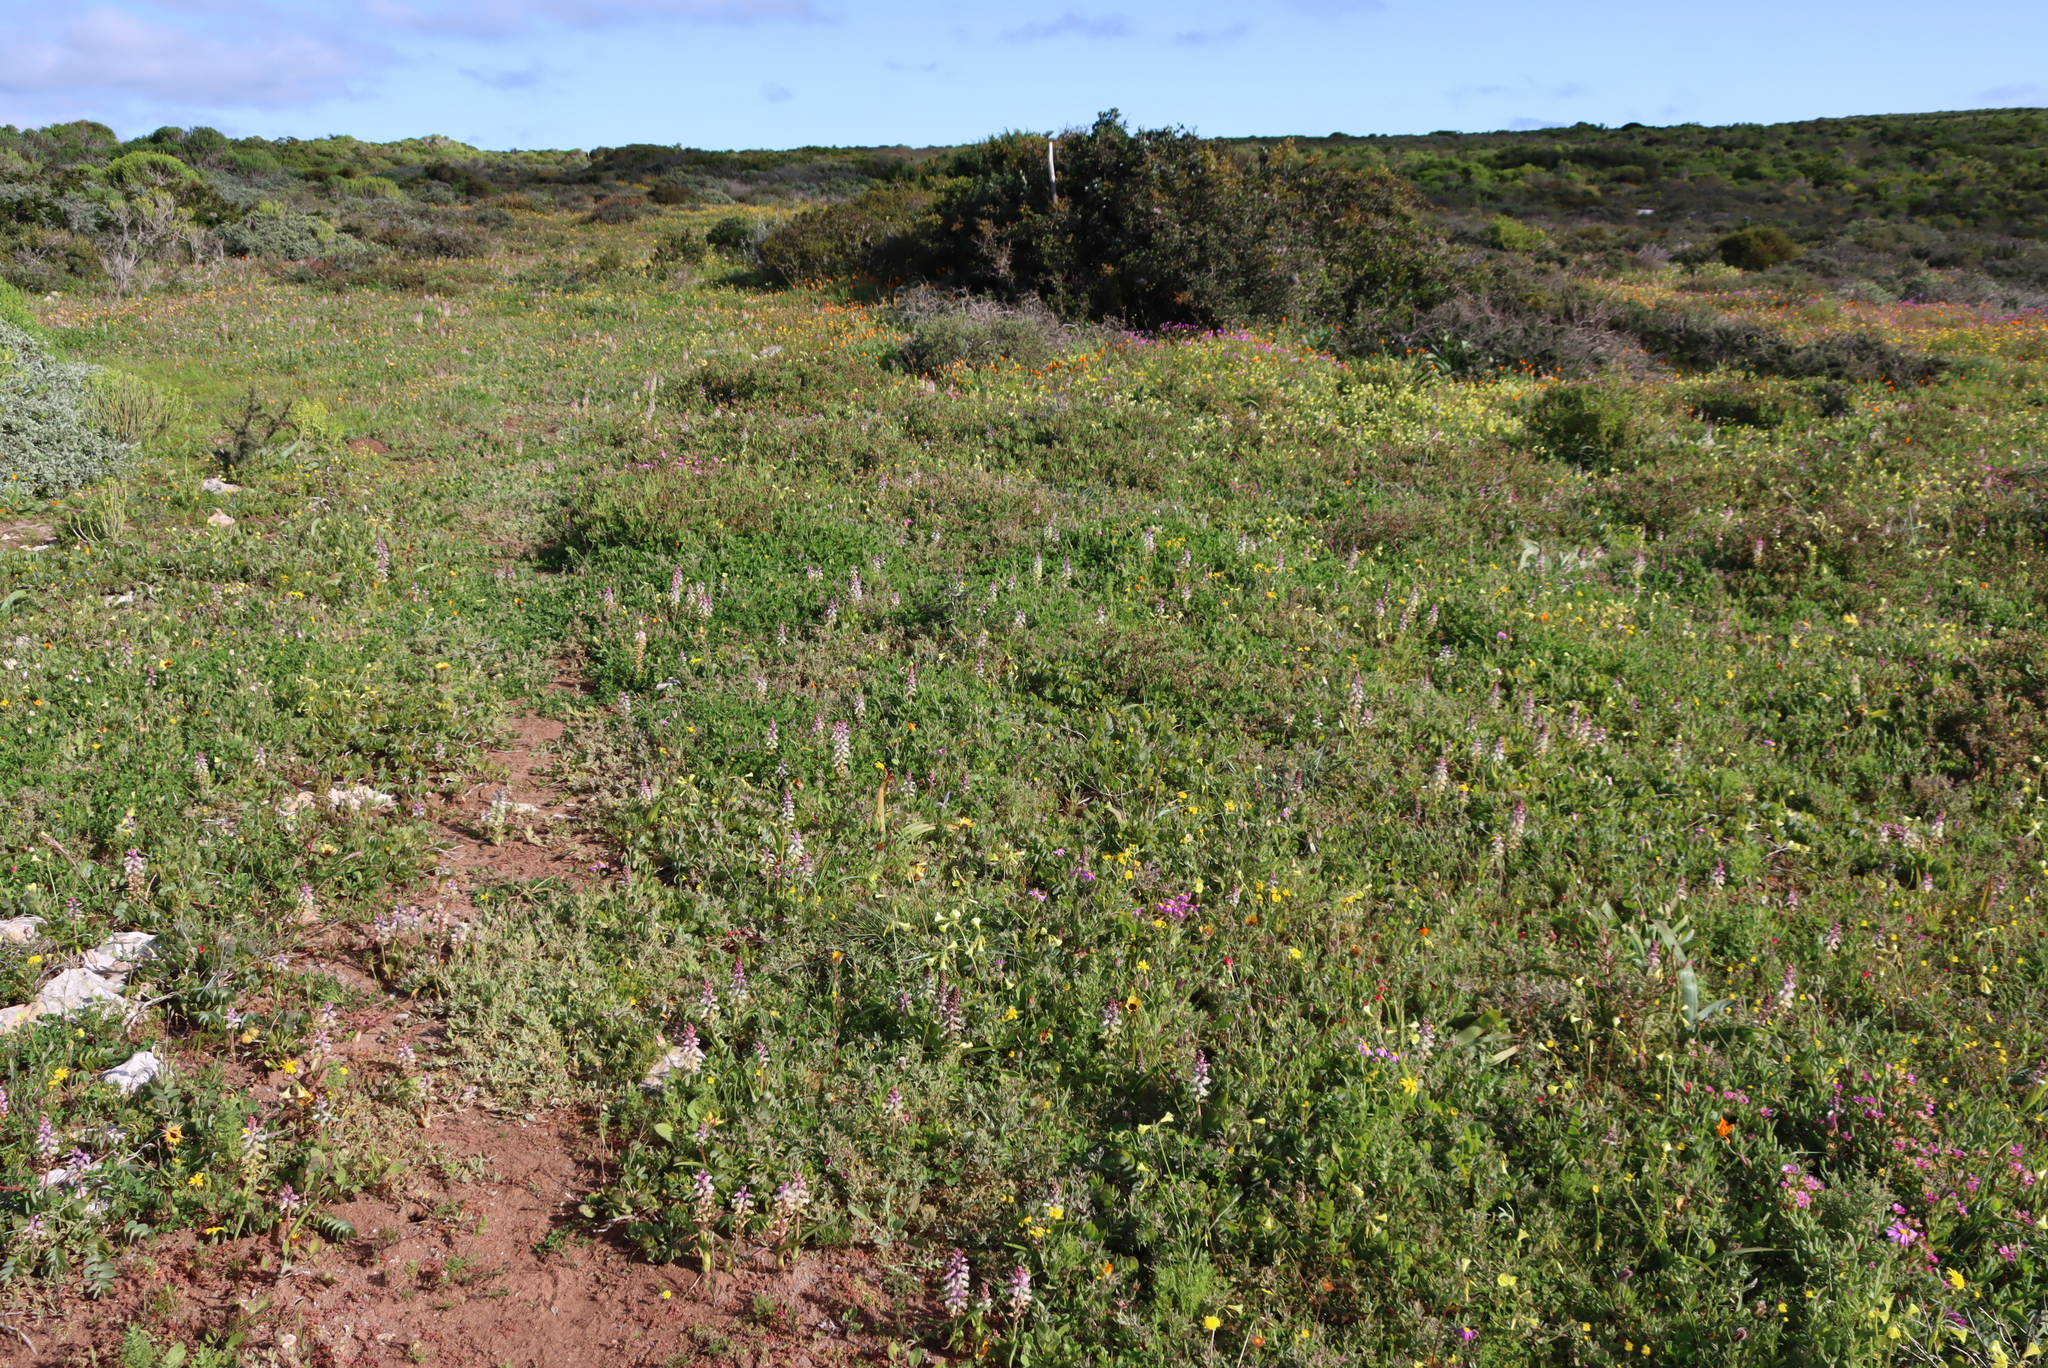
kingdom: Plantae
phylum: Tracheophyta
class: Liliopsida
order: Asparagales
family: Asparagaceae
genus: Lachenalia
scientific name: Lachenalia pallida
